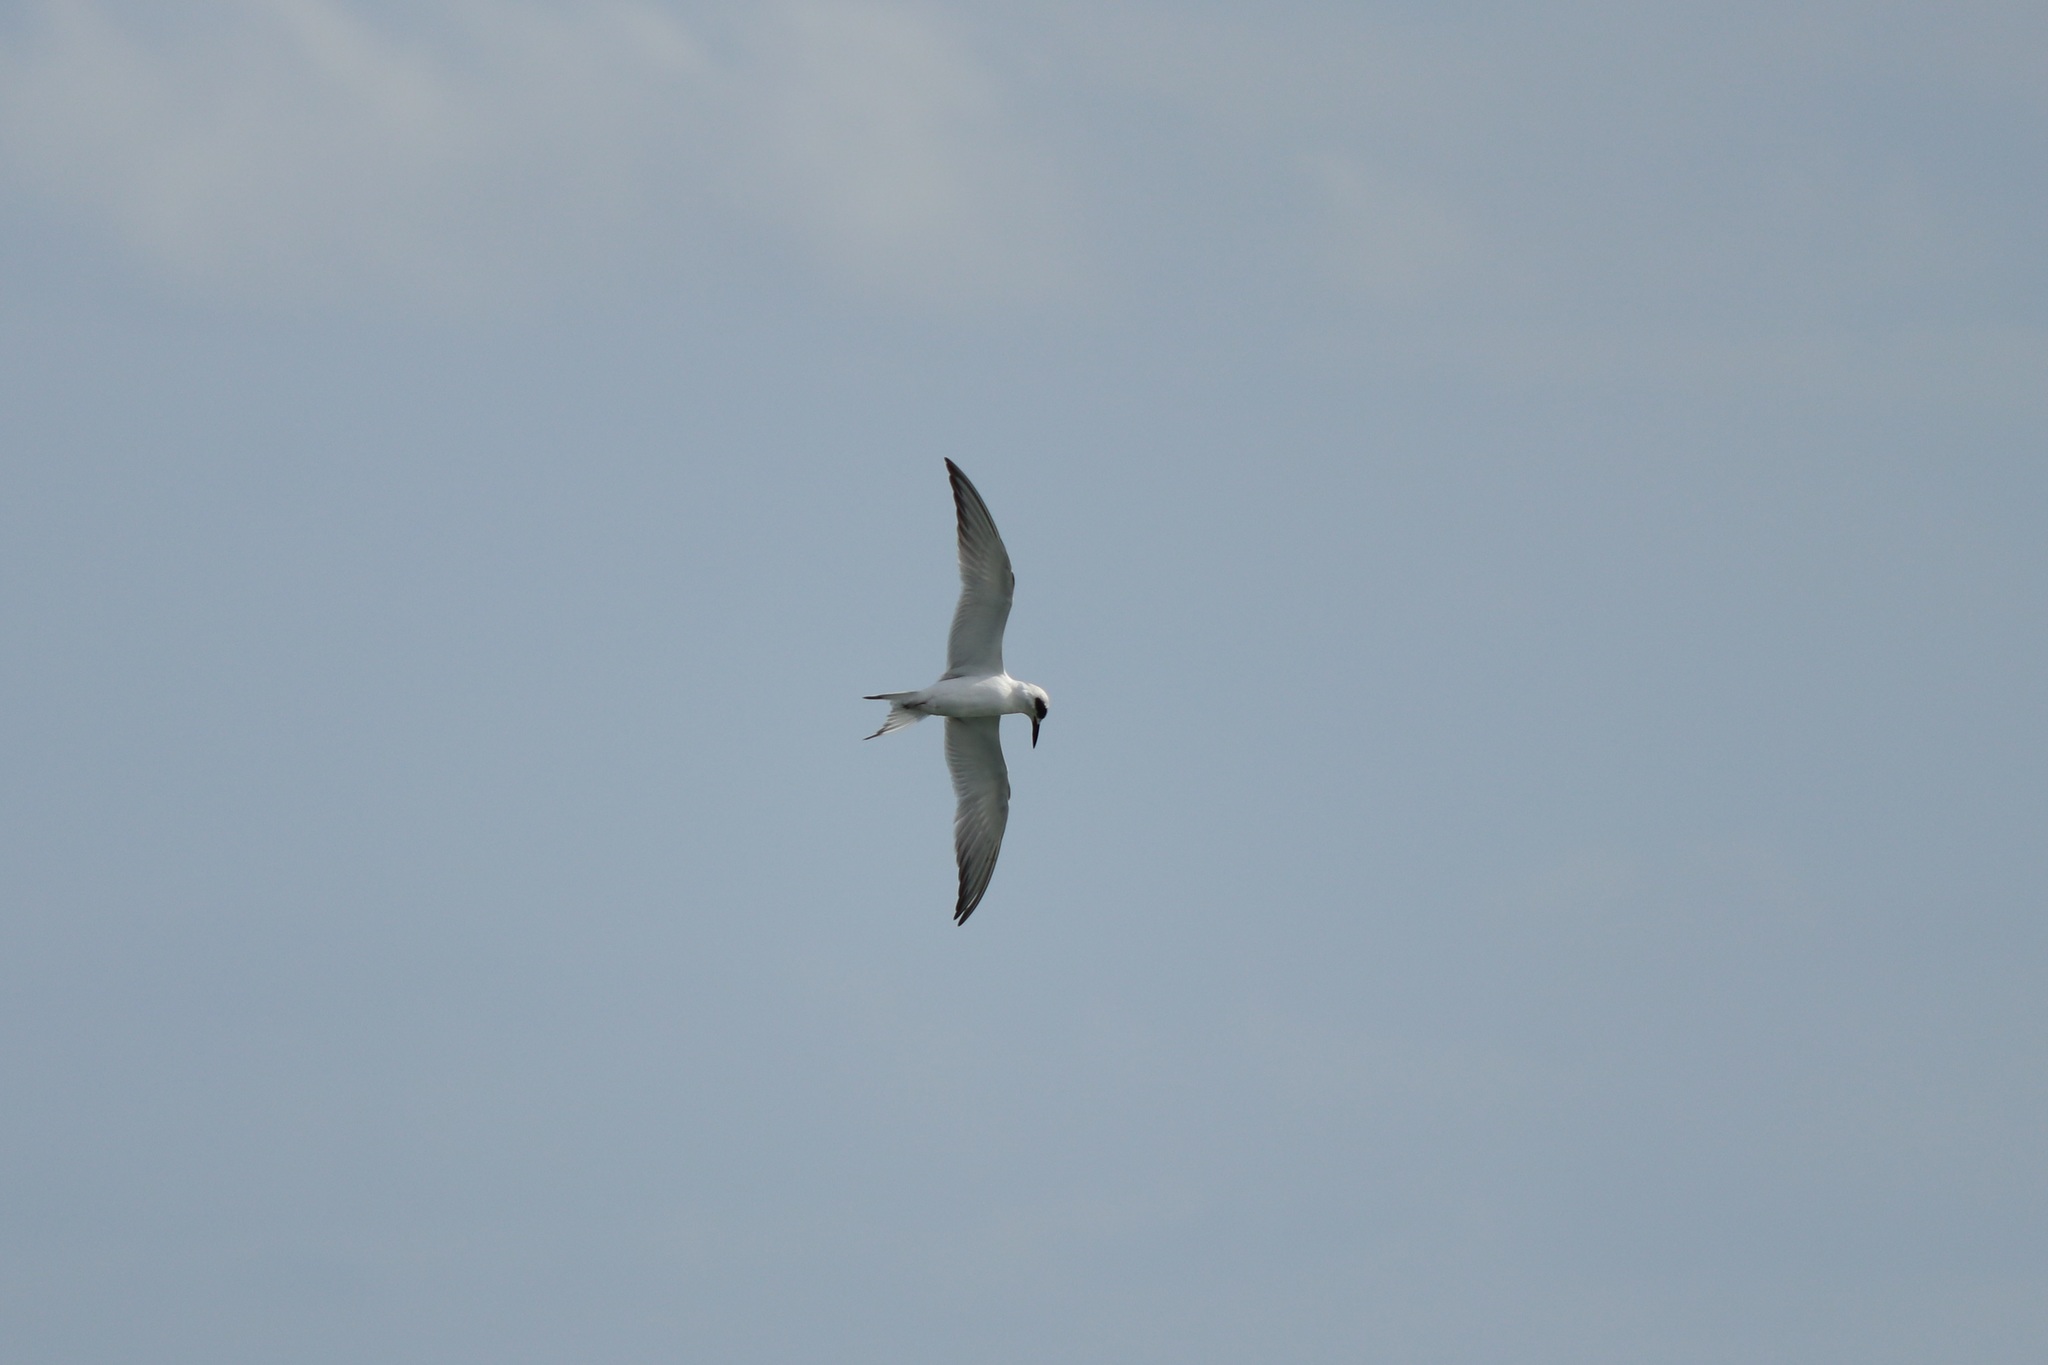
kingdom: Animalia
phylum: Chordata
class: Aves
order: Charadriiformes
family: Laridae
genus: Sterna
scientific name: Sterna forsteri
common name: Forster's tern
